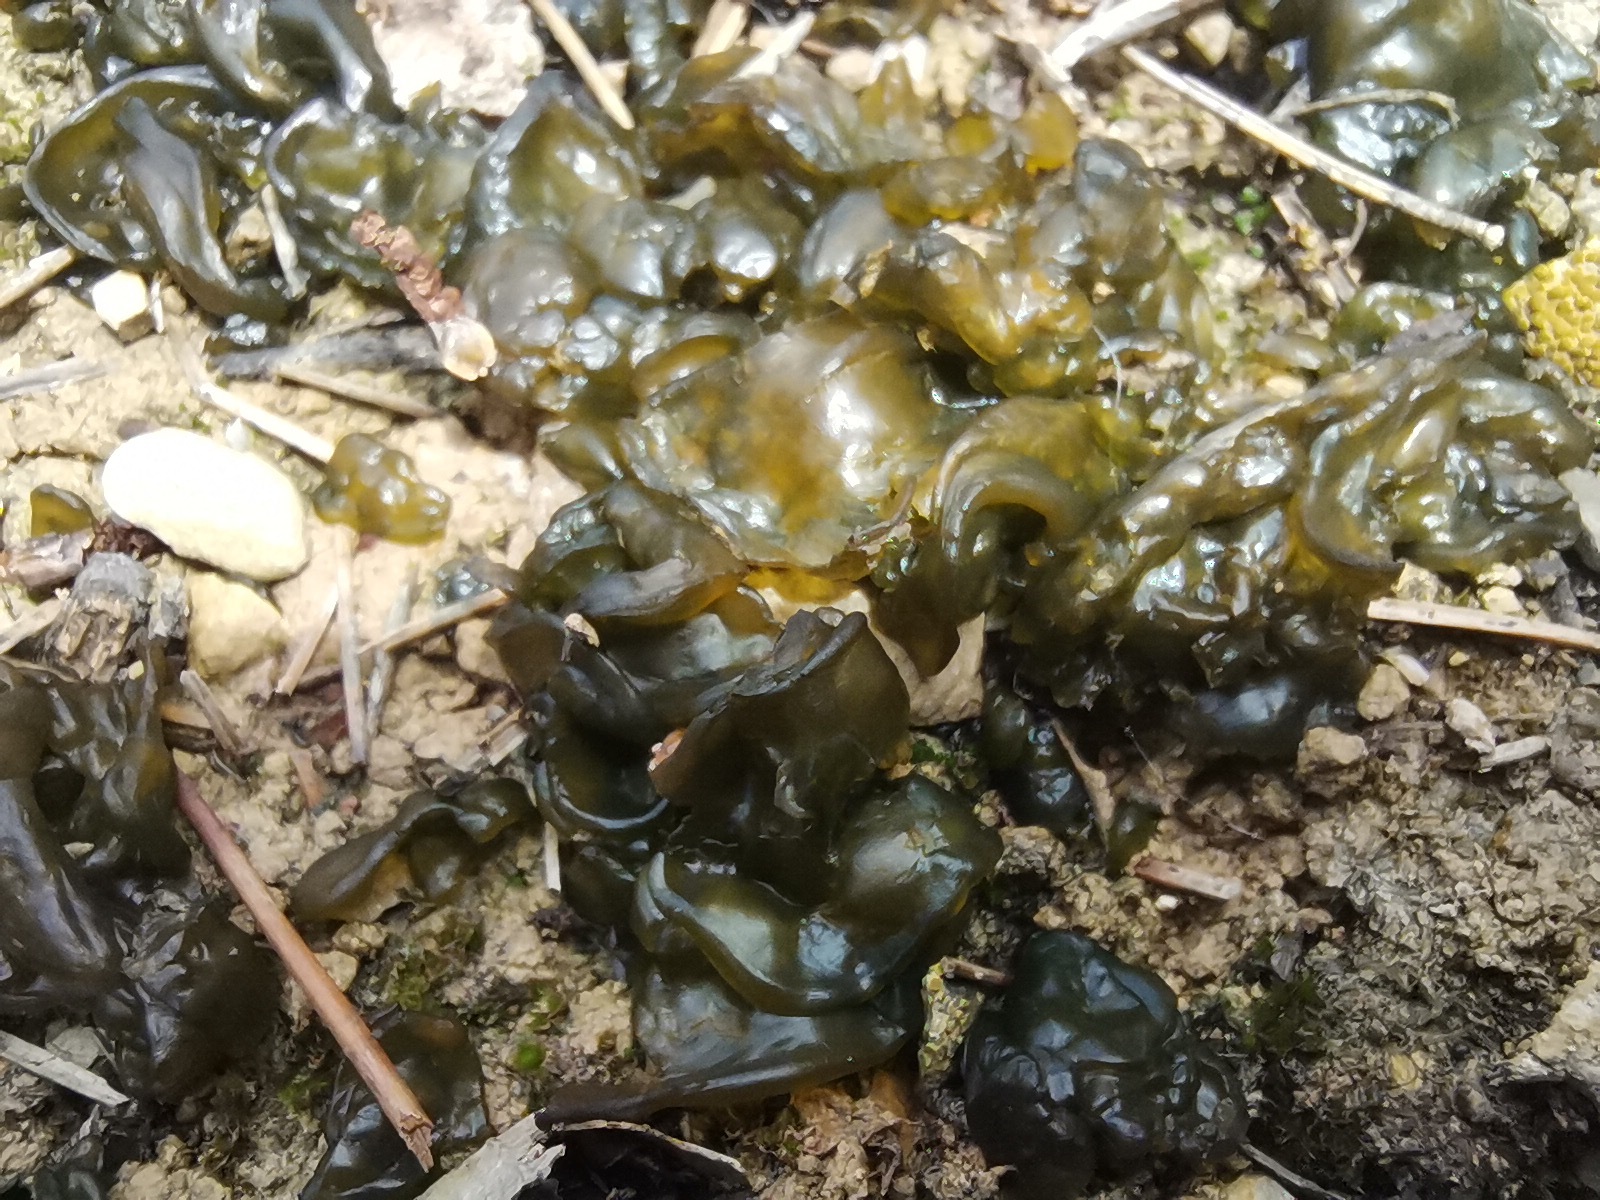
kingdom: Bacteria
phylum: Cyanobacteria
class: Cyanobacteriia
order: Cyanobacteriales
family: Nostocaceae
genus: Nostoc
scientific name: Nostoc commune
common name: Star jelly
